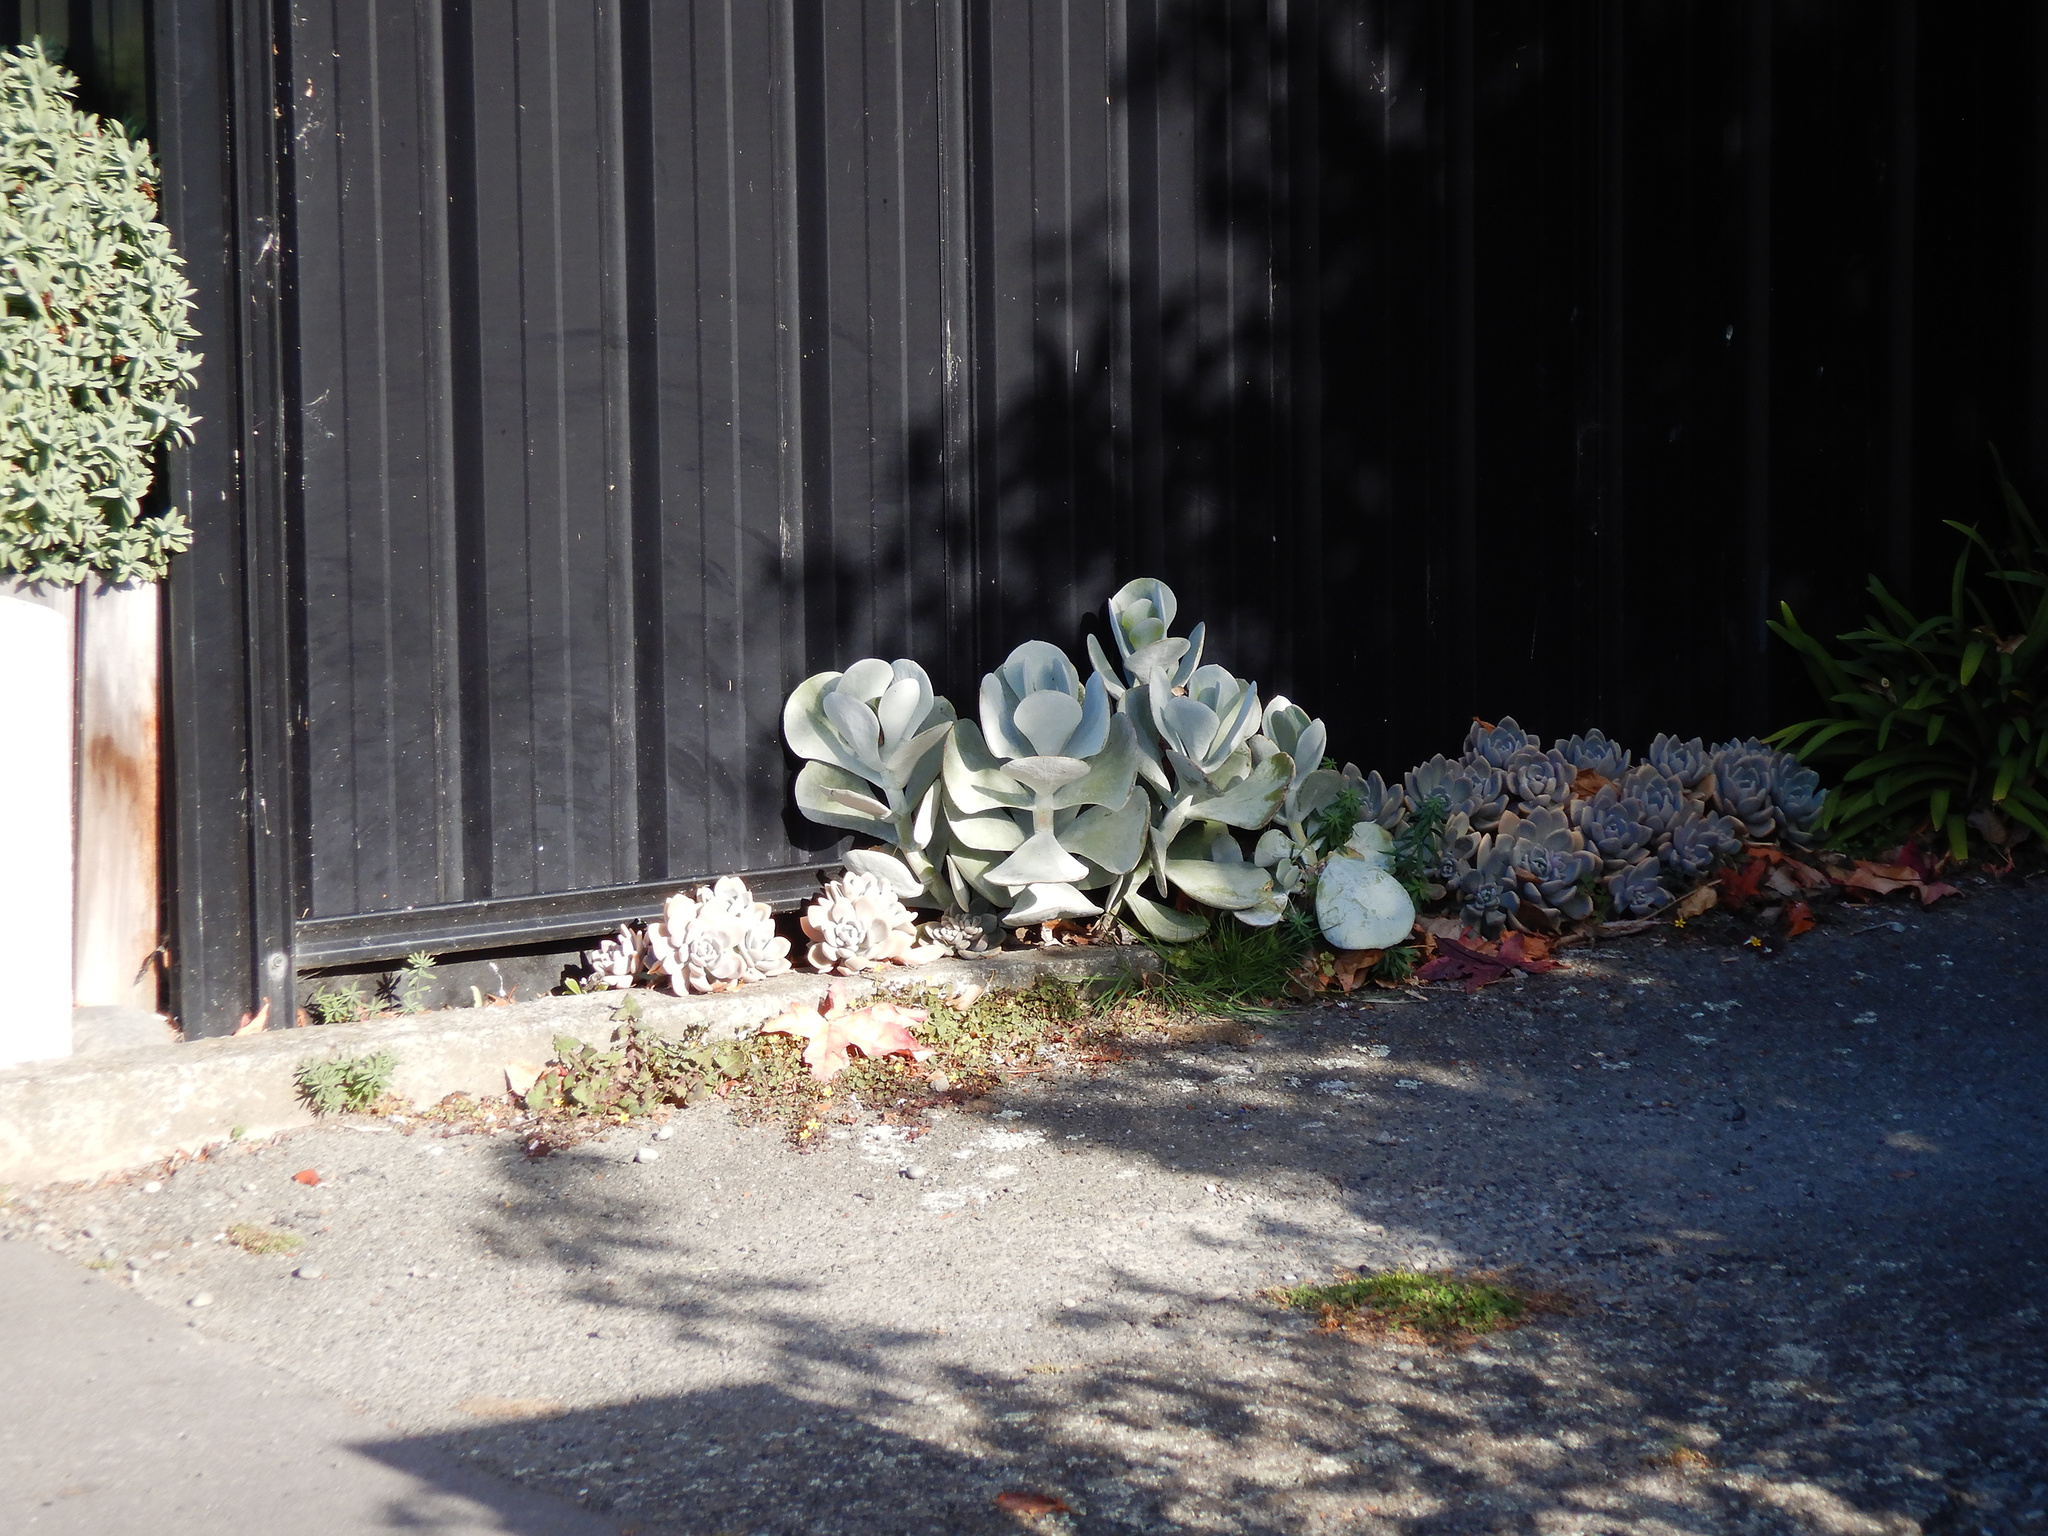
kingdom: Plantae
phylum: Tracheophyta
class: Magnoliopsida
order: Saxifragales
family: Crassulaceae
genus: Cotyledon
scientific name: Cotyledon orbiculata
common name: Pig's ear
